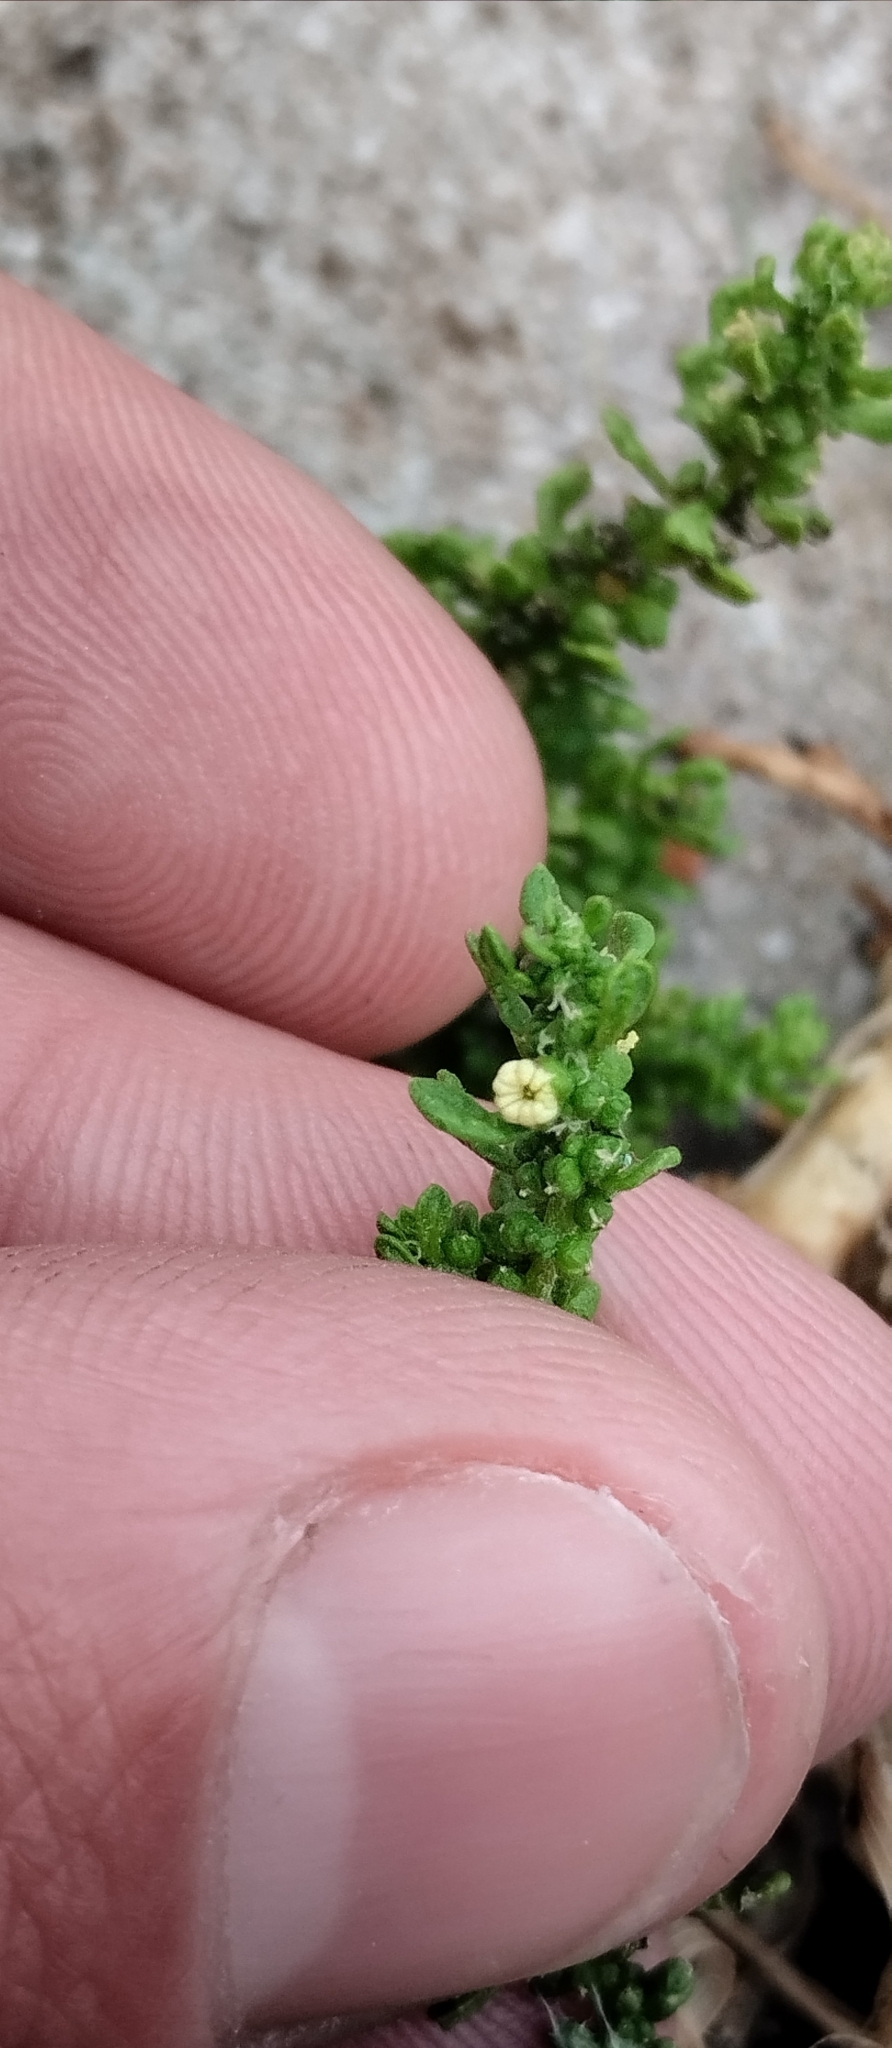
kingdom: Plantae
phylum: Tracheophyta
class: Magnoliopsida
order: Caryophyllales
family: Amaranthaceae
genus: Dysphania
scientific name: Dysphania multifida
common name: Cutleaf goosefoot
